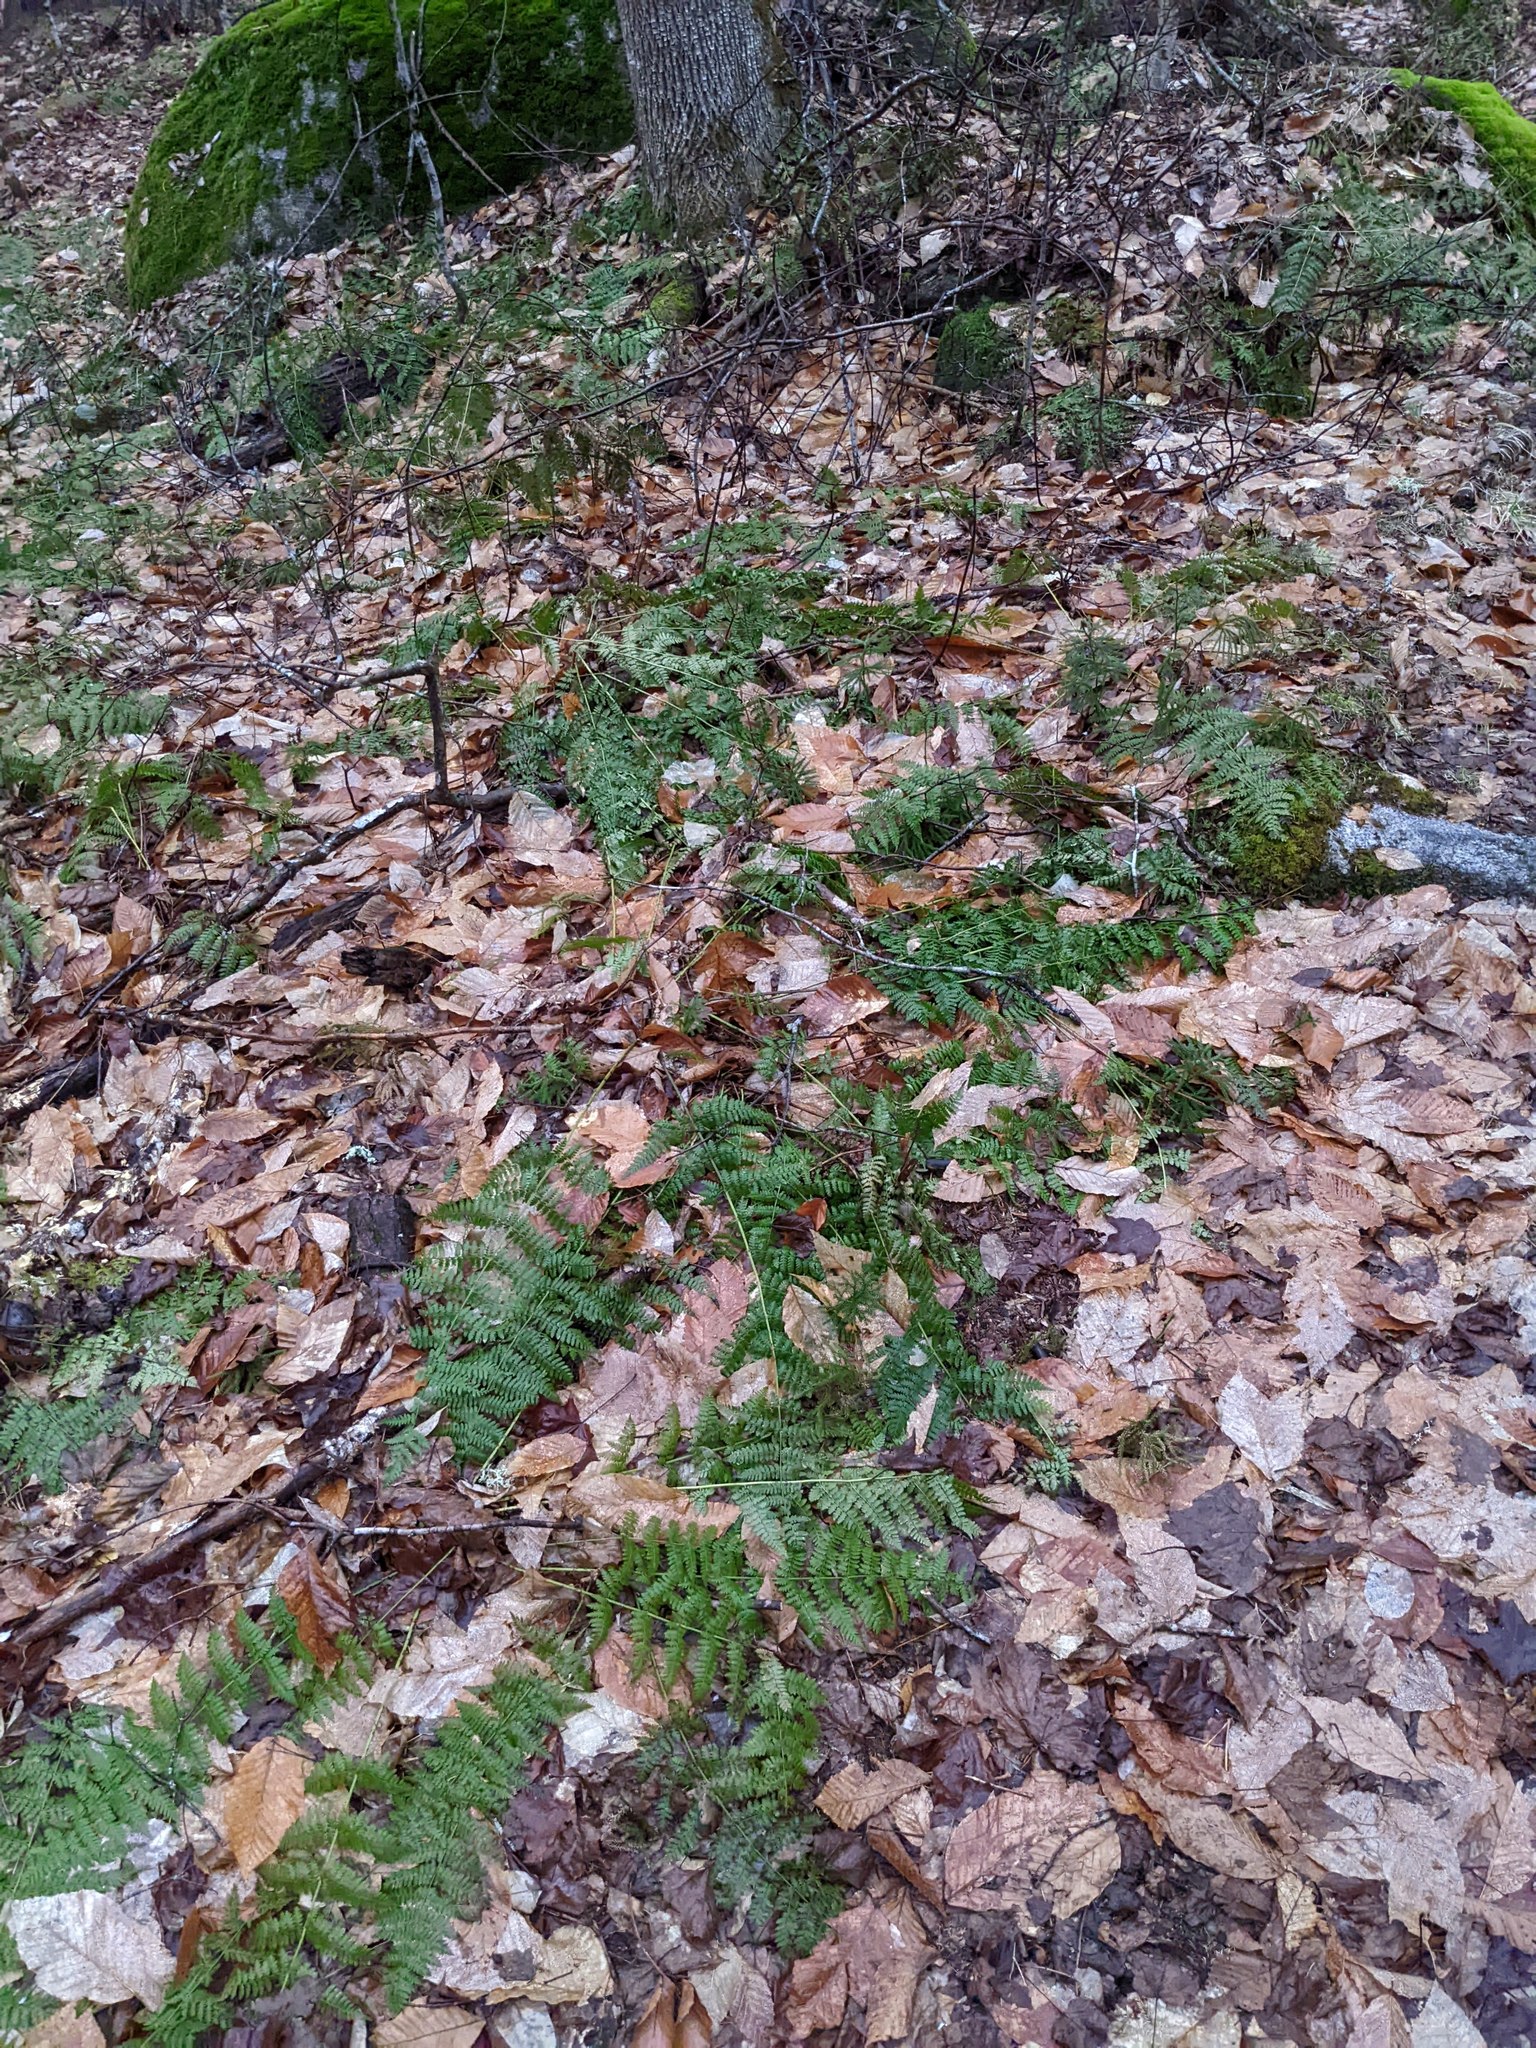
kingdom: Plantae
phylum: Tracheophyta
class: Polypodiopsida
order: Polypodiales
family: Dryopteridaceae
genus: Dryopteris
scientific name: Dryopteris intermedia
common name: Evergreen wood fern
